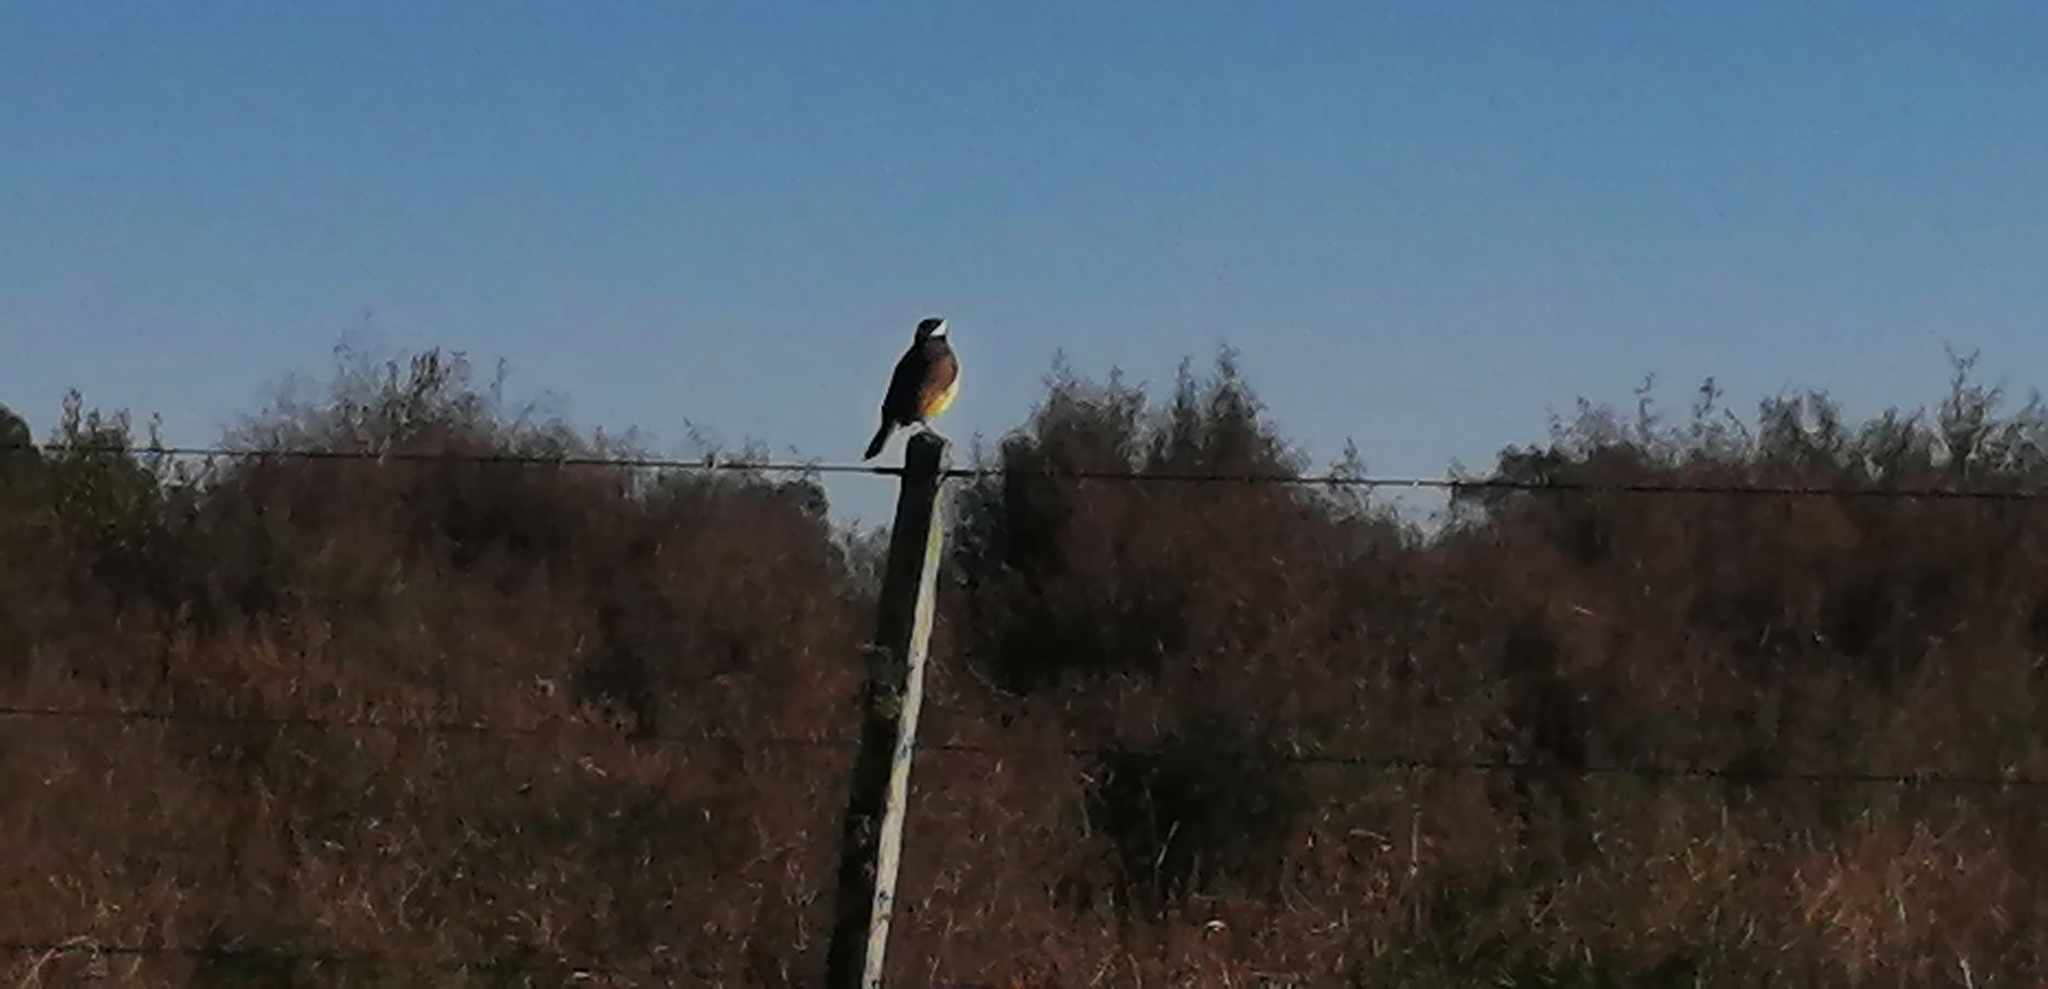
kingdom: Animalia
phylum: Chordata
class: Aves
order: Passeriformes
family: Tyrannidae
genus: Pitangus
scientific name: Pitangus sulphuratus
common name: Great kiskadee
